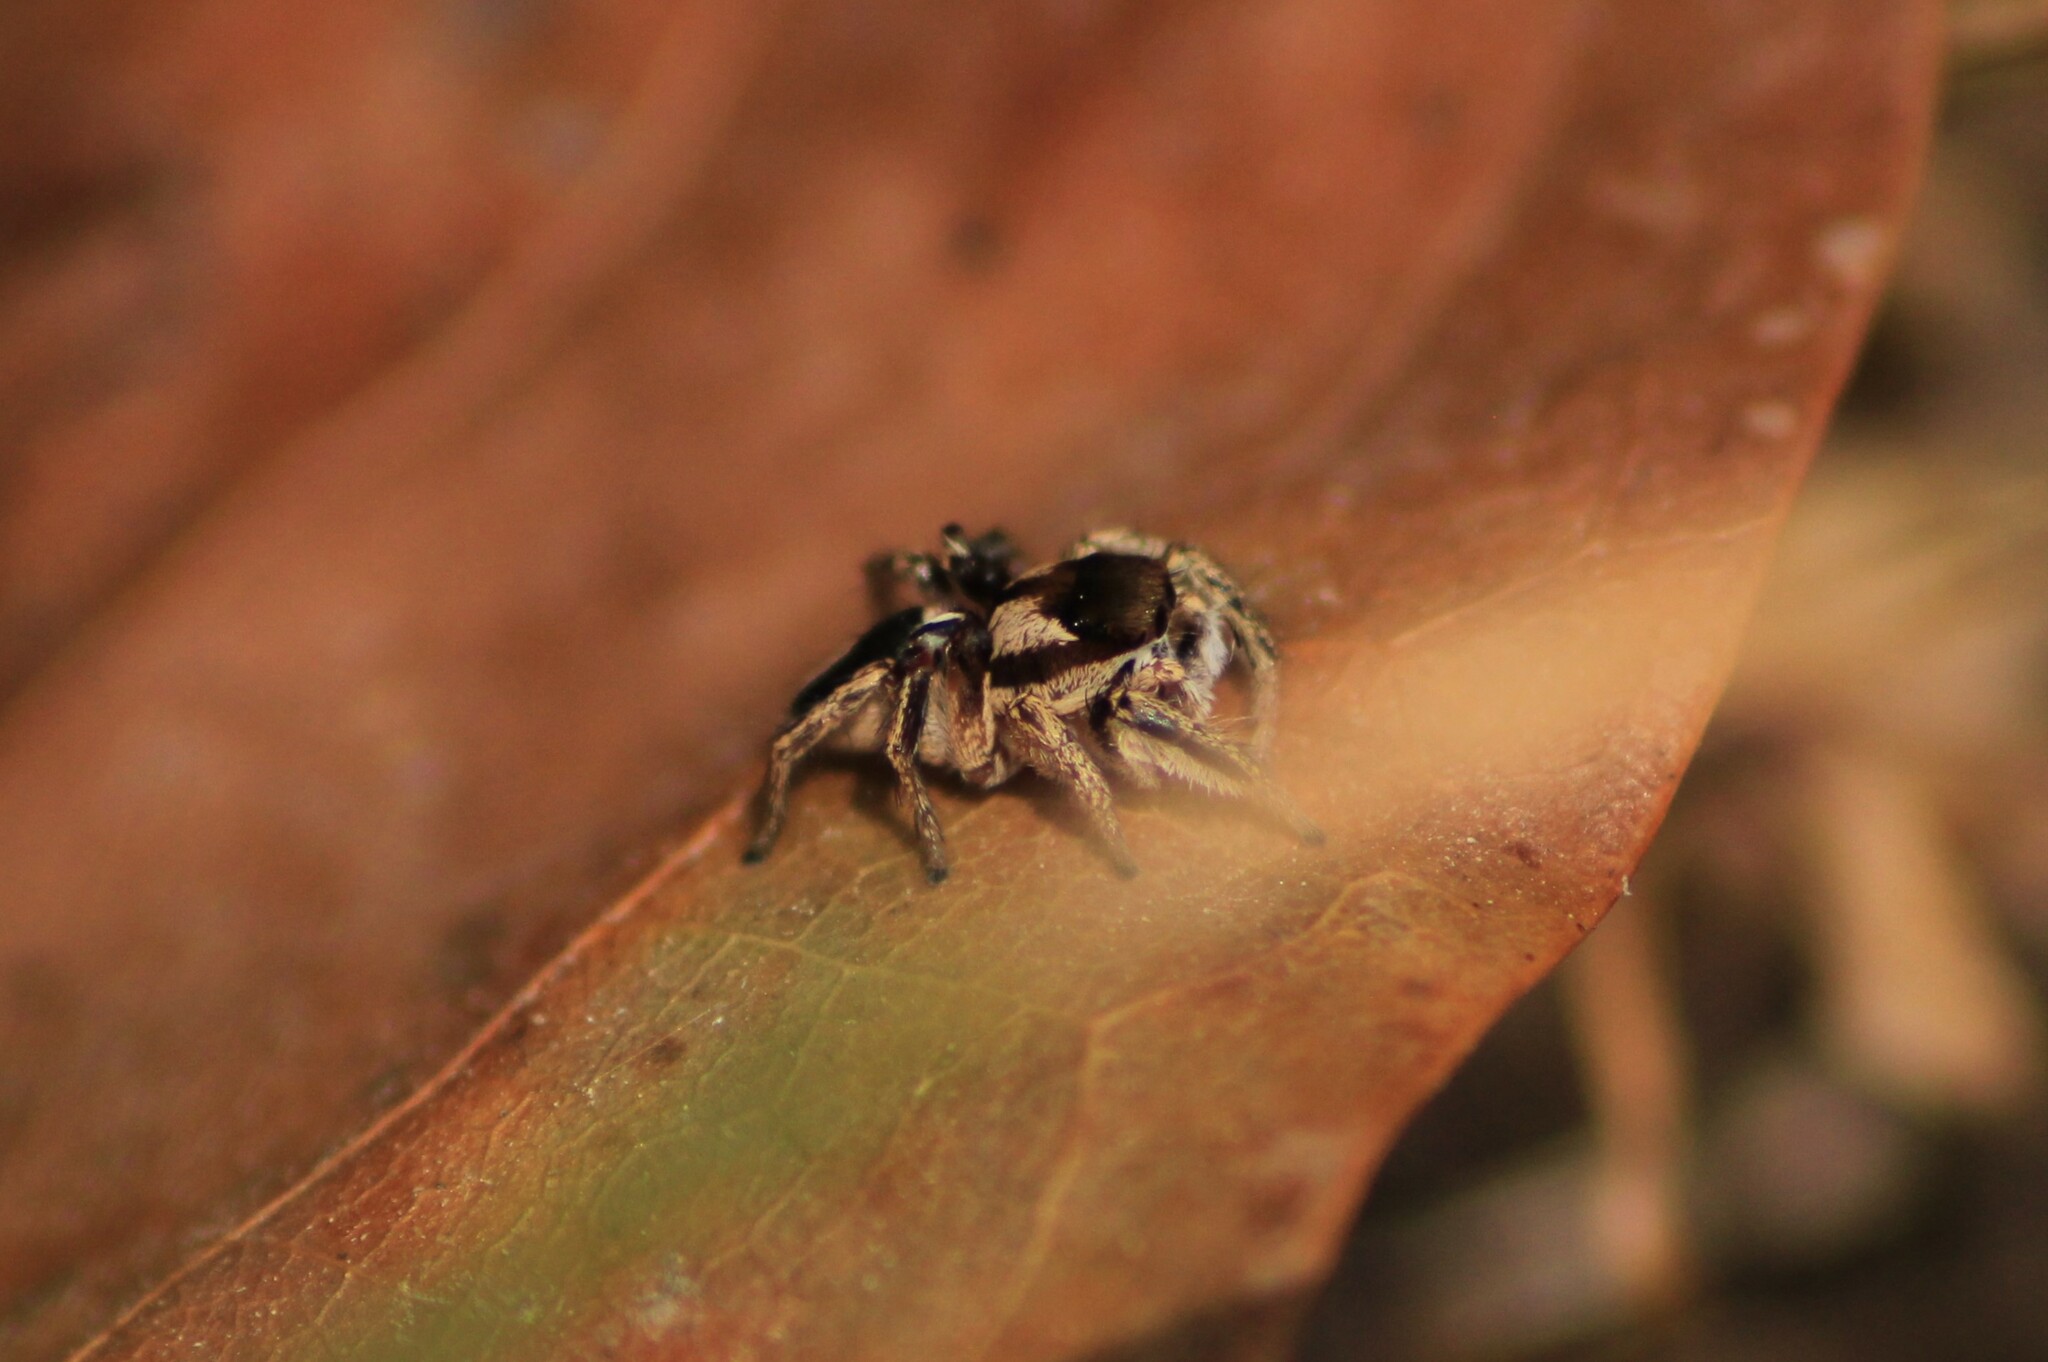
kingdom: Animalia
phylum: Arthropoda
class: Arachnida
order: Araneae
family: Salticidae
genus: Habronattus
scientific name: Habronattus velivolus
